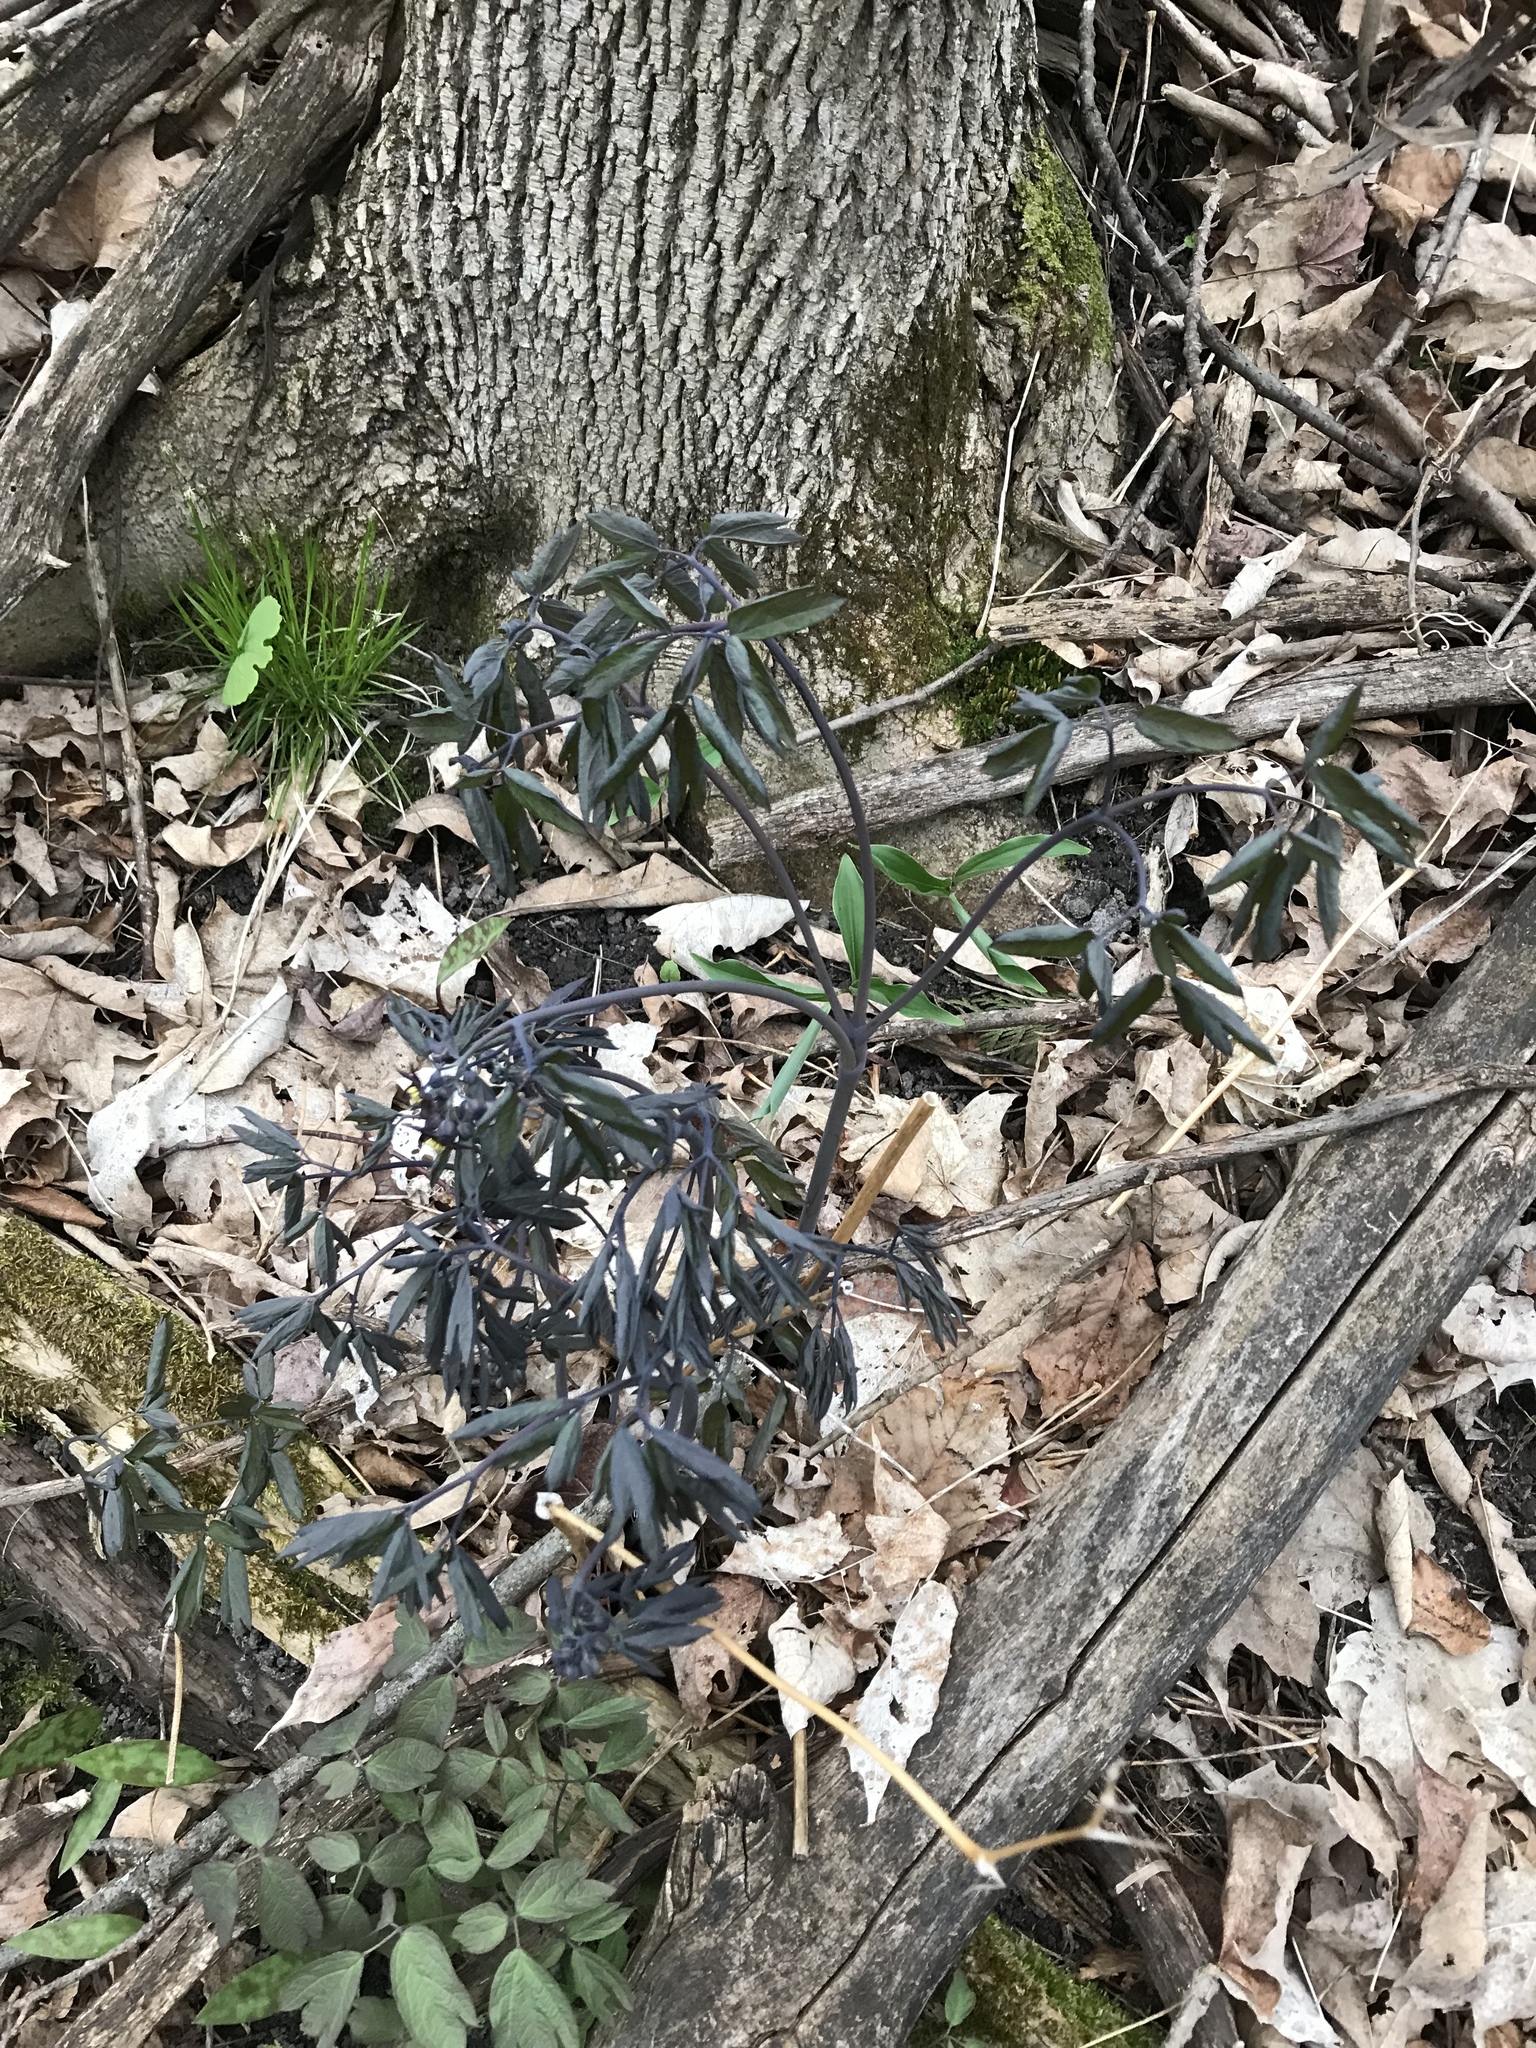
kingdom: Plantae
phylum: Tracheophyta
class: Magnoliopsida
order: Ranunculales
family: Berberidaceae
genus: Caulophyllum
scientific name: Caulophyllum giganteum
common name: Blue cohosh
